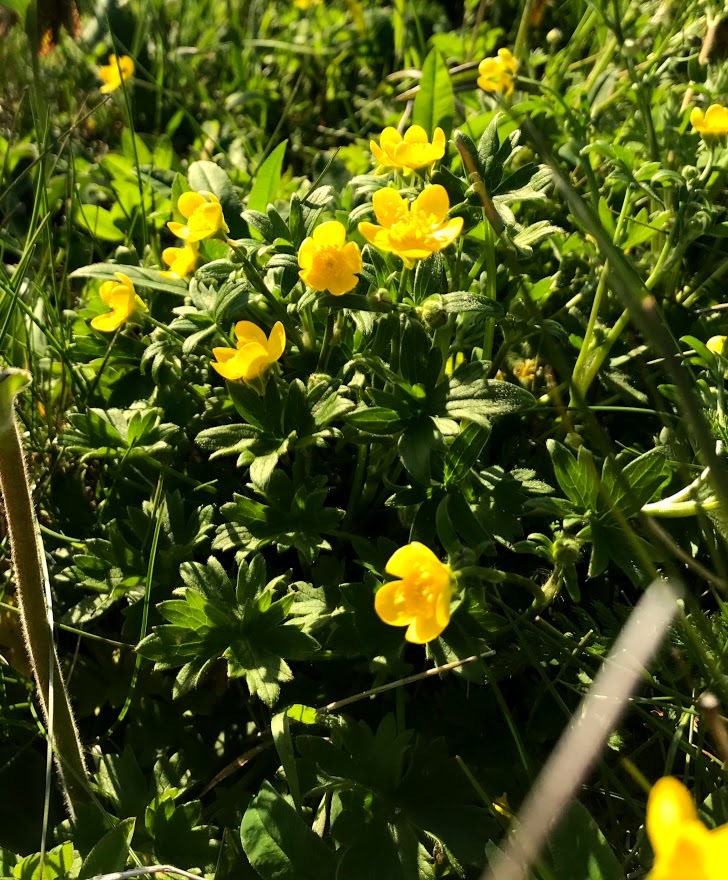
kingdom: Plantae
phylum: Tracheophyta
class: Magnoliopsida
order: Ranunculales
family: Ranunculaceae
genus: Ranunculus
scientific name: Ranunculus occidentalis
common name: Western buttercup
